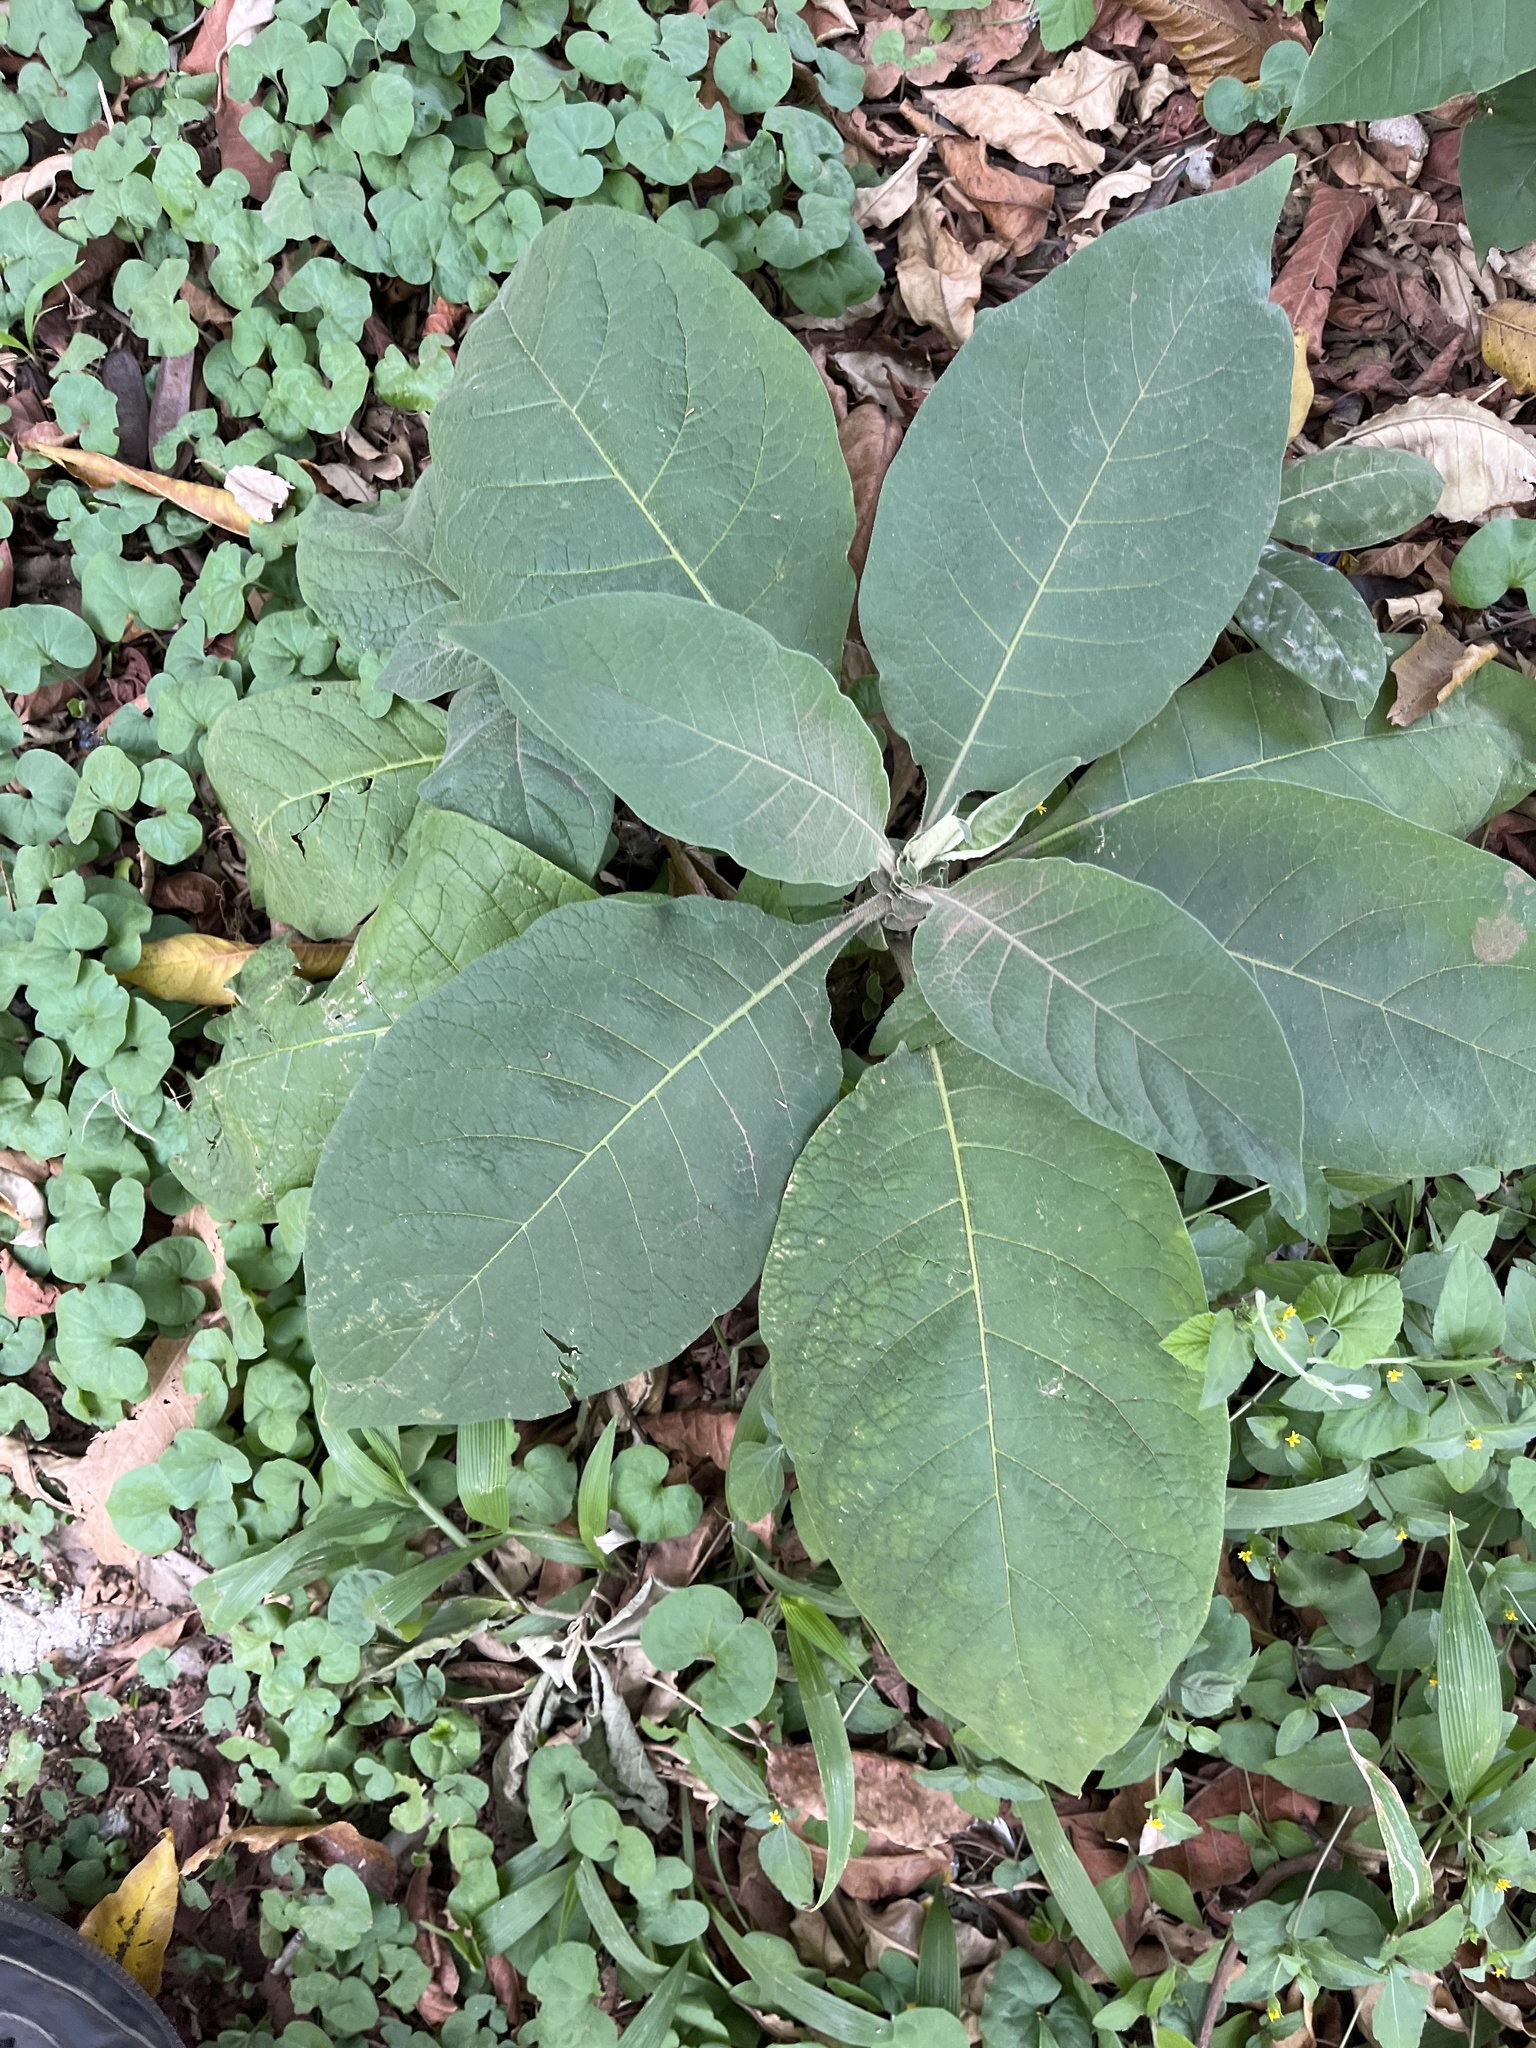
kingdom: Plantae
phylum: Tracheophyta
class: Magnoliopsida
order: Solanales
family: Solanaceae
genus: Solanum
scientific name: Solanum mauritianum
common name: Earleaf nightshade
